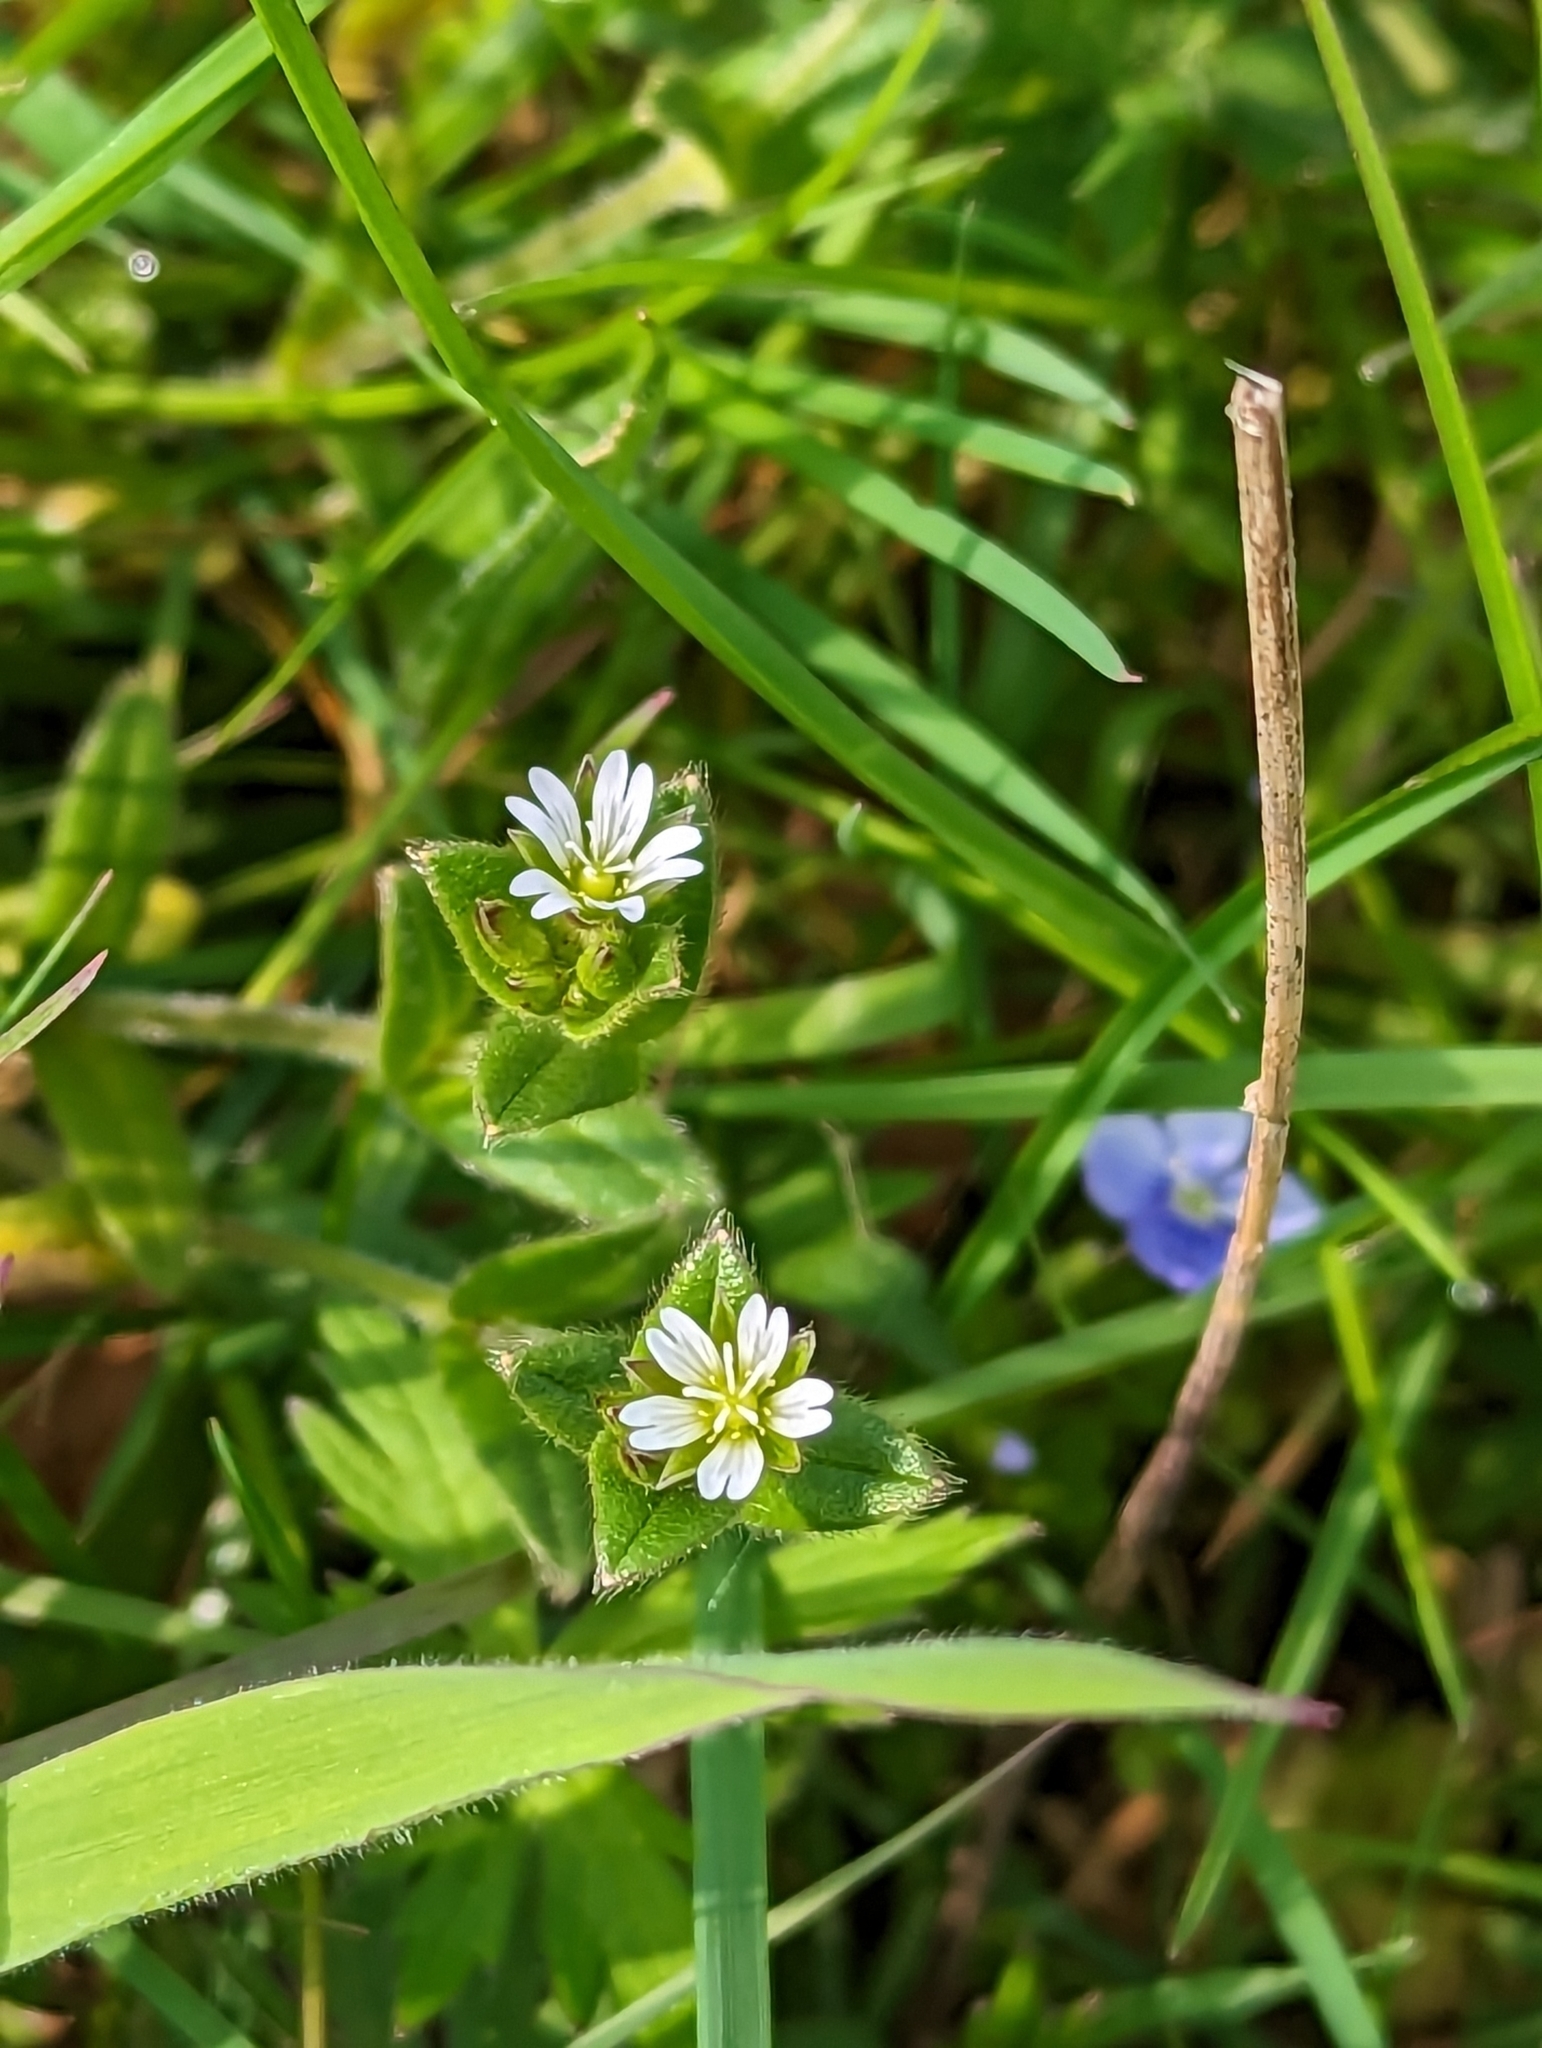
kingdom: Plantae
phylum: Tracheophyta
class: Magnoliopsida
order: Caryophyllales
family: Caryophyllaceae
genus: Cerastium
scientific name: Cerastium fontanum
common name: Common mouse-ear
